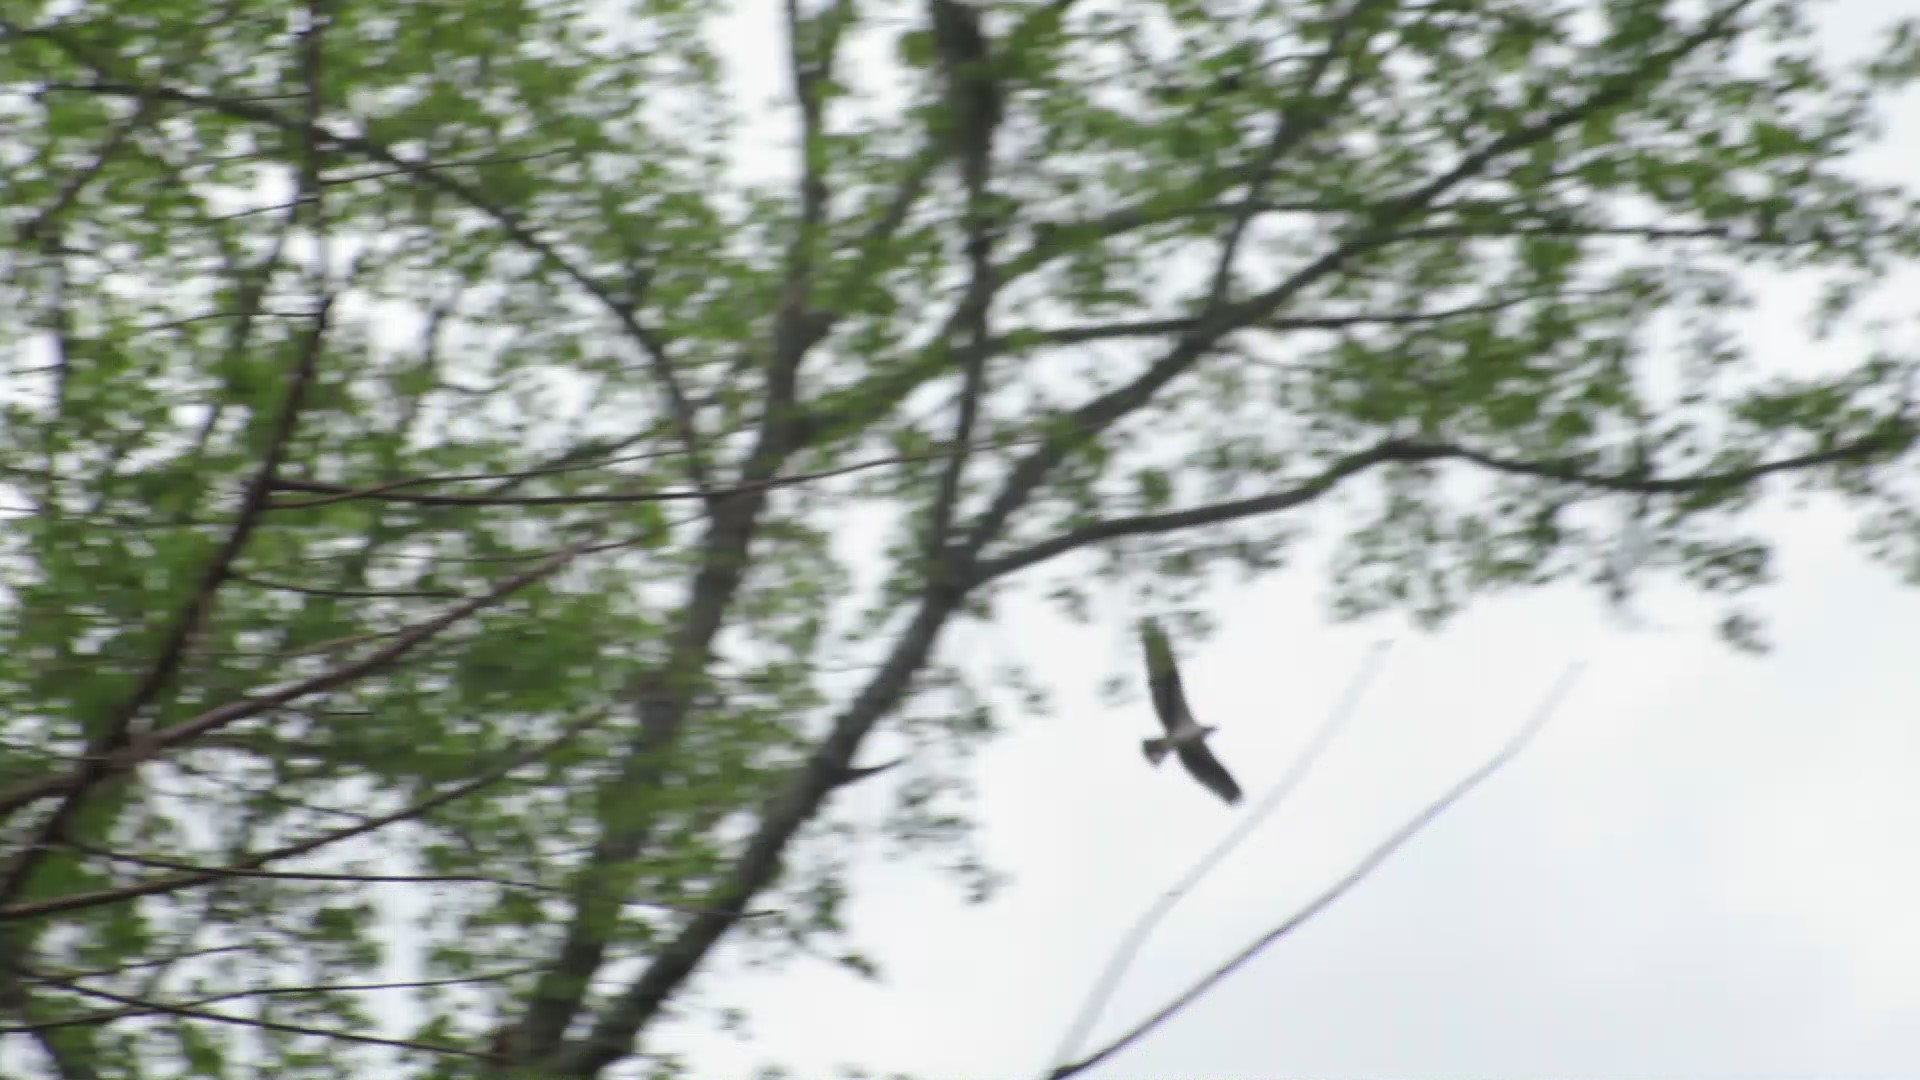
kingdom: Animalia
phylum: Chordata
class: Aves
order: Accipitriformes
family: Pandionidae
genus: Pandion
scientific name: Pandion haliaetus
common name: Osprey
